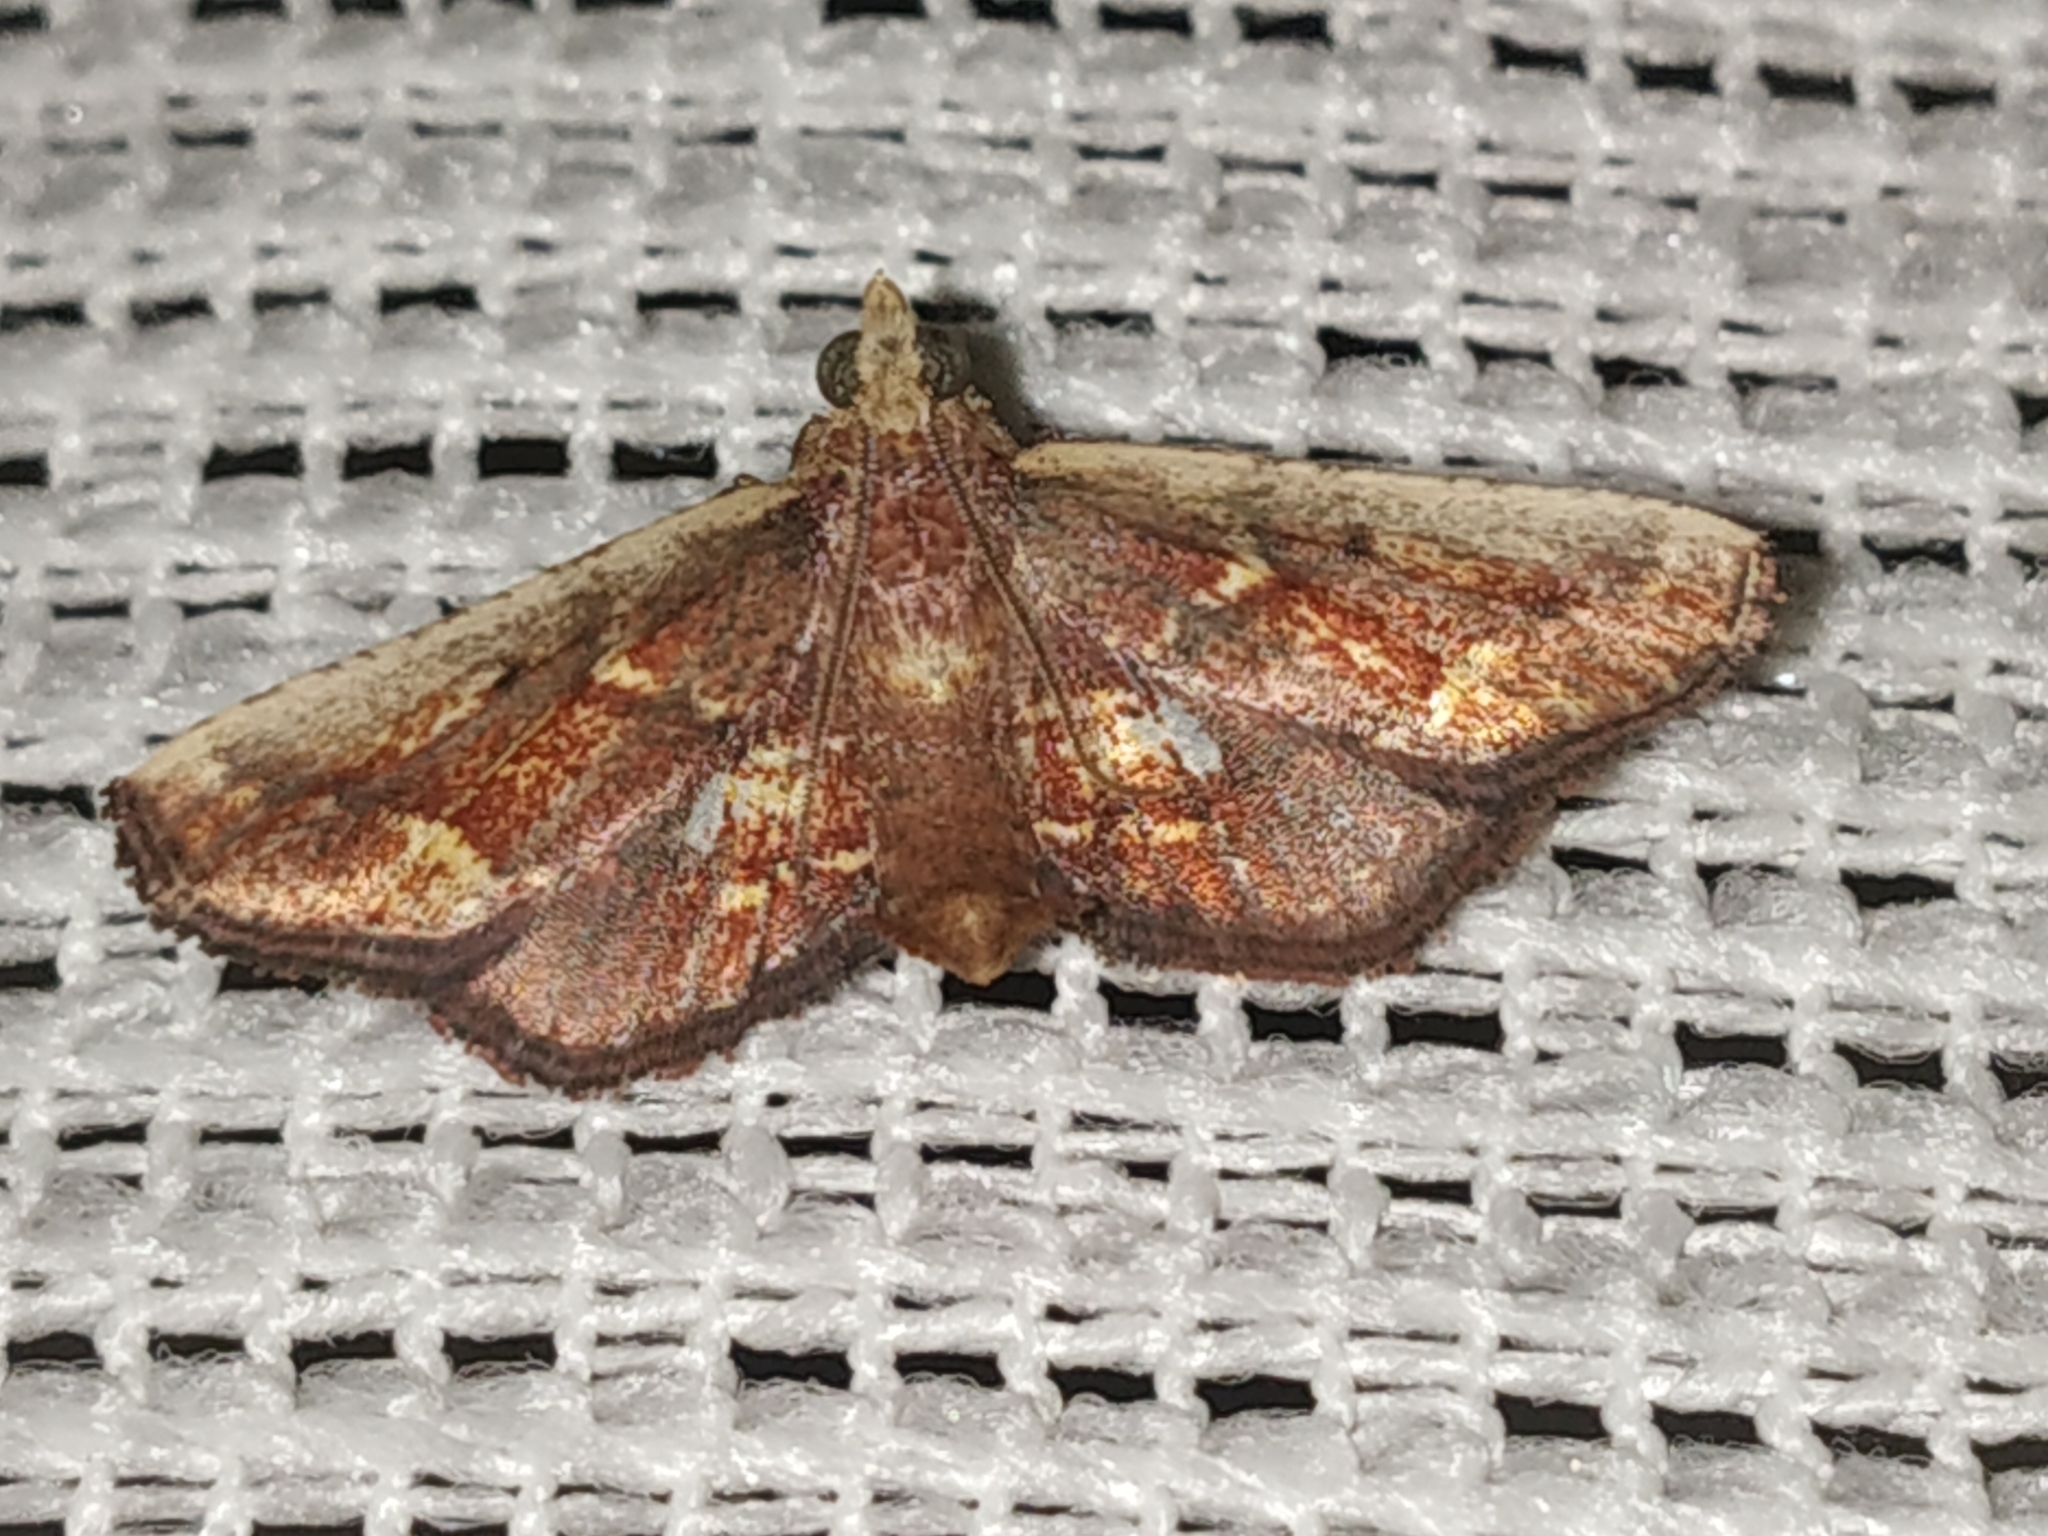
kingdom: Animalia
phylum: Arthropoda
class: Insecta
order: Lepidoptera
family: Pyralidae
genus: Zitha
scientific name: Zitha
